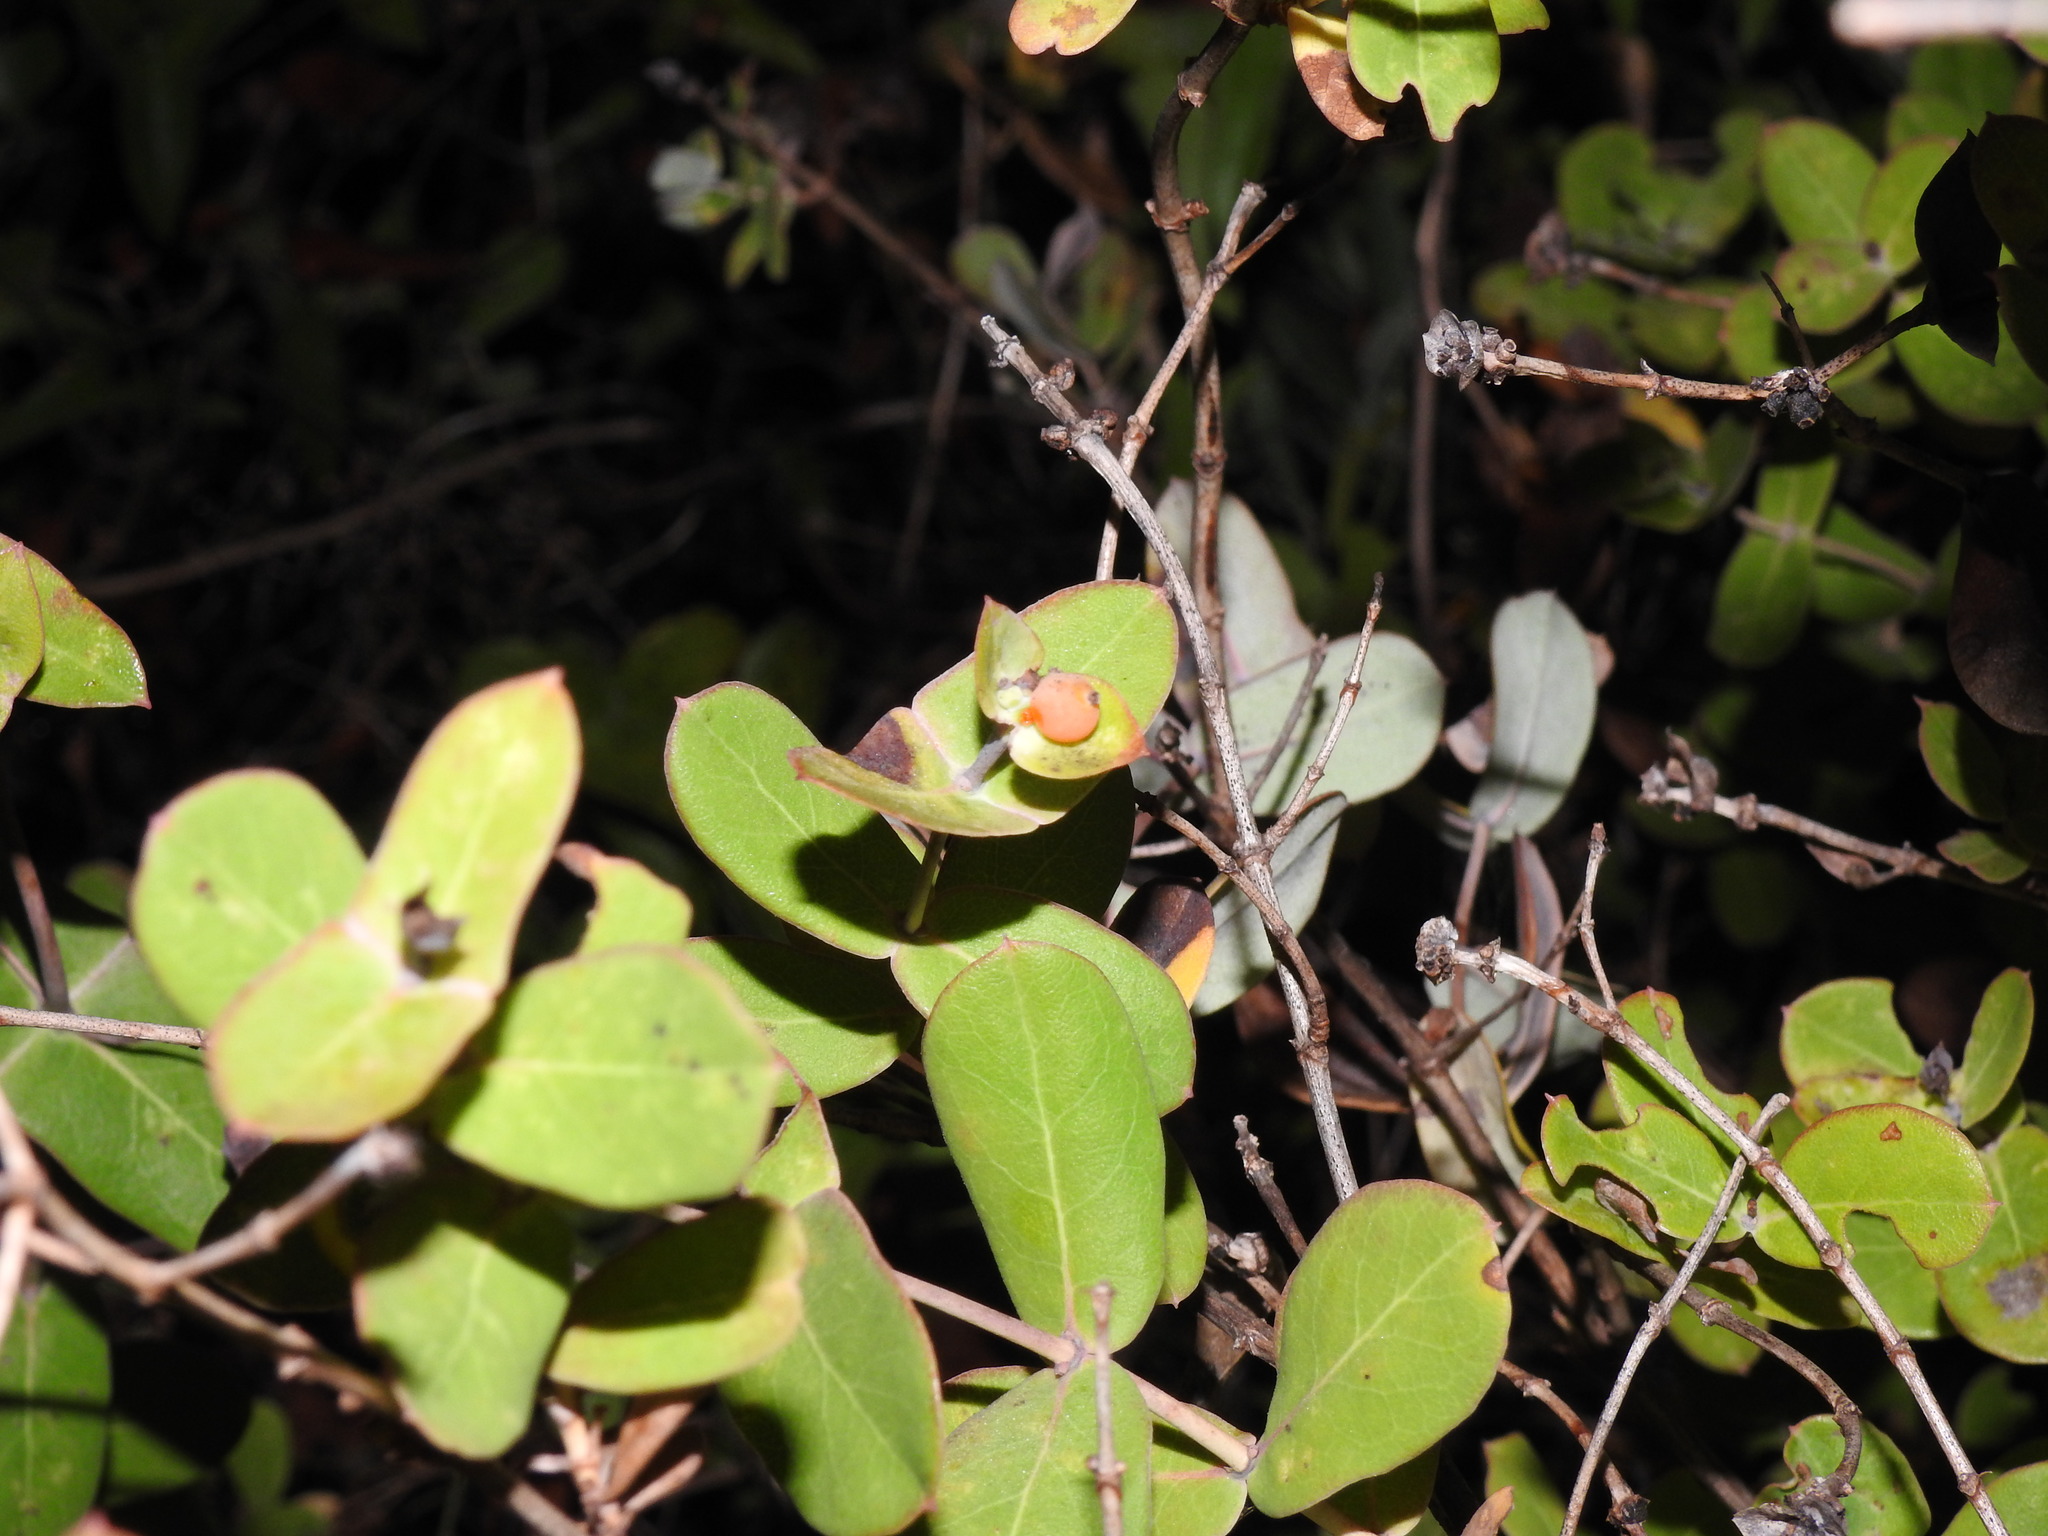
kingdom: Plantae
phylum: Tracheophyta
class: Magnoliopsida
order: Dipsacales
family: Caprifoliaceae
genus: Lonicera
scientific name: Lonicera implexa
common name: Minorca honeysuckle
